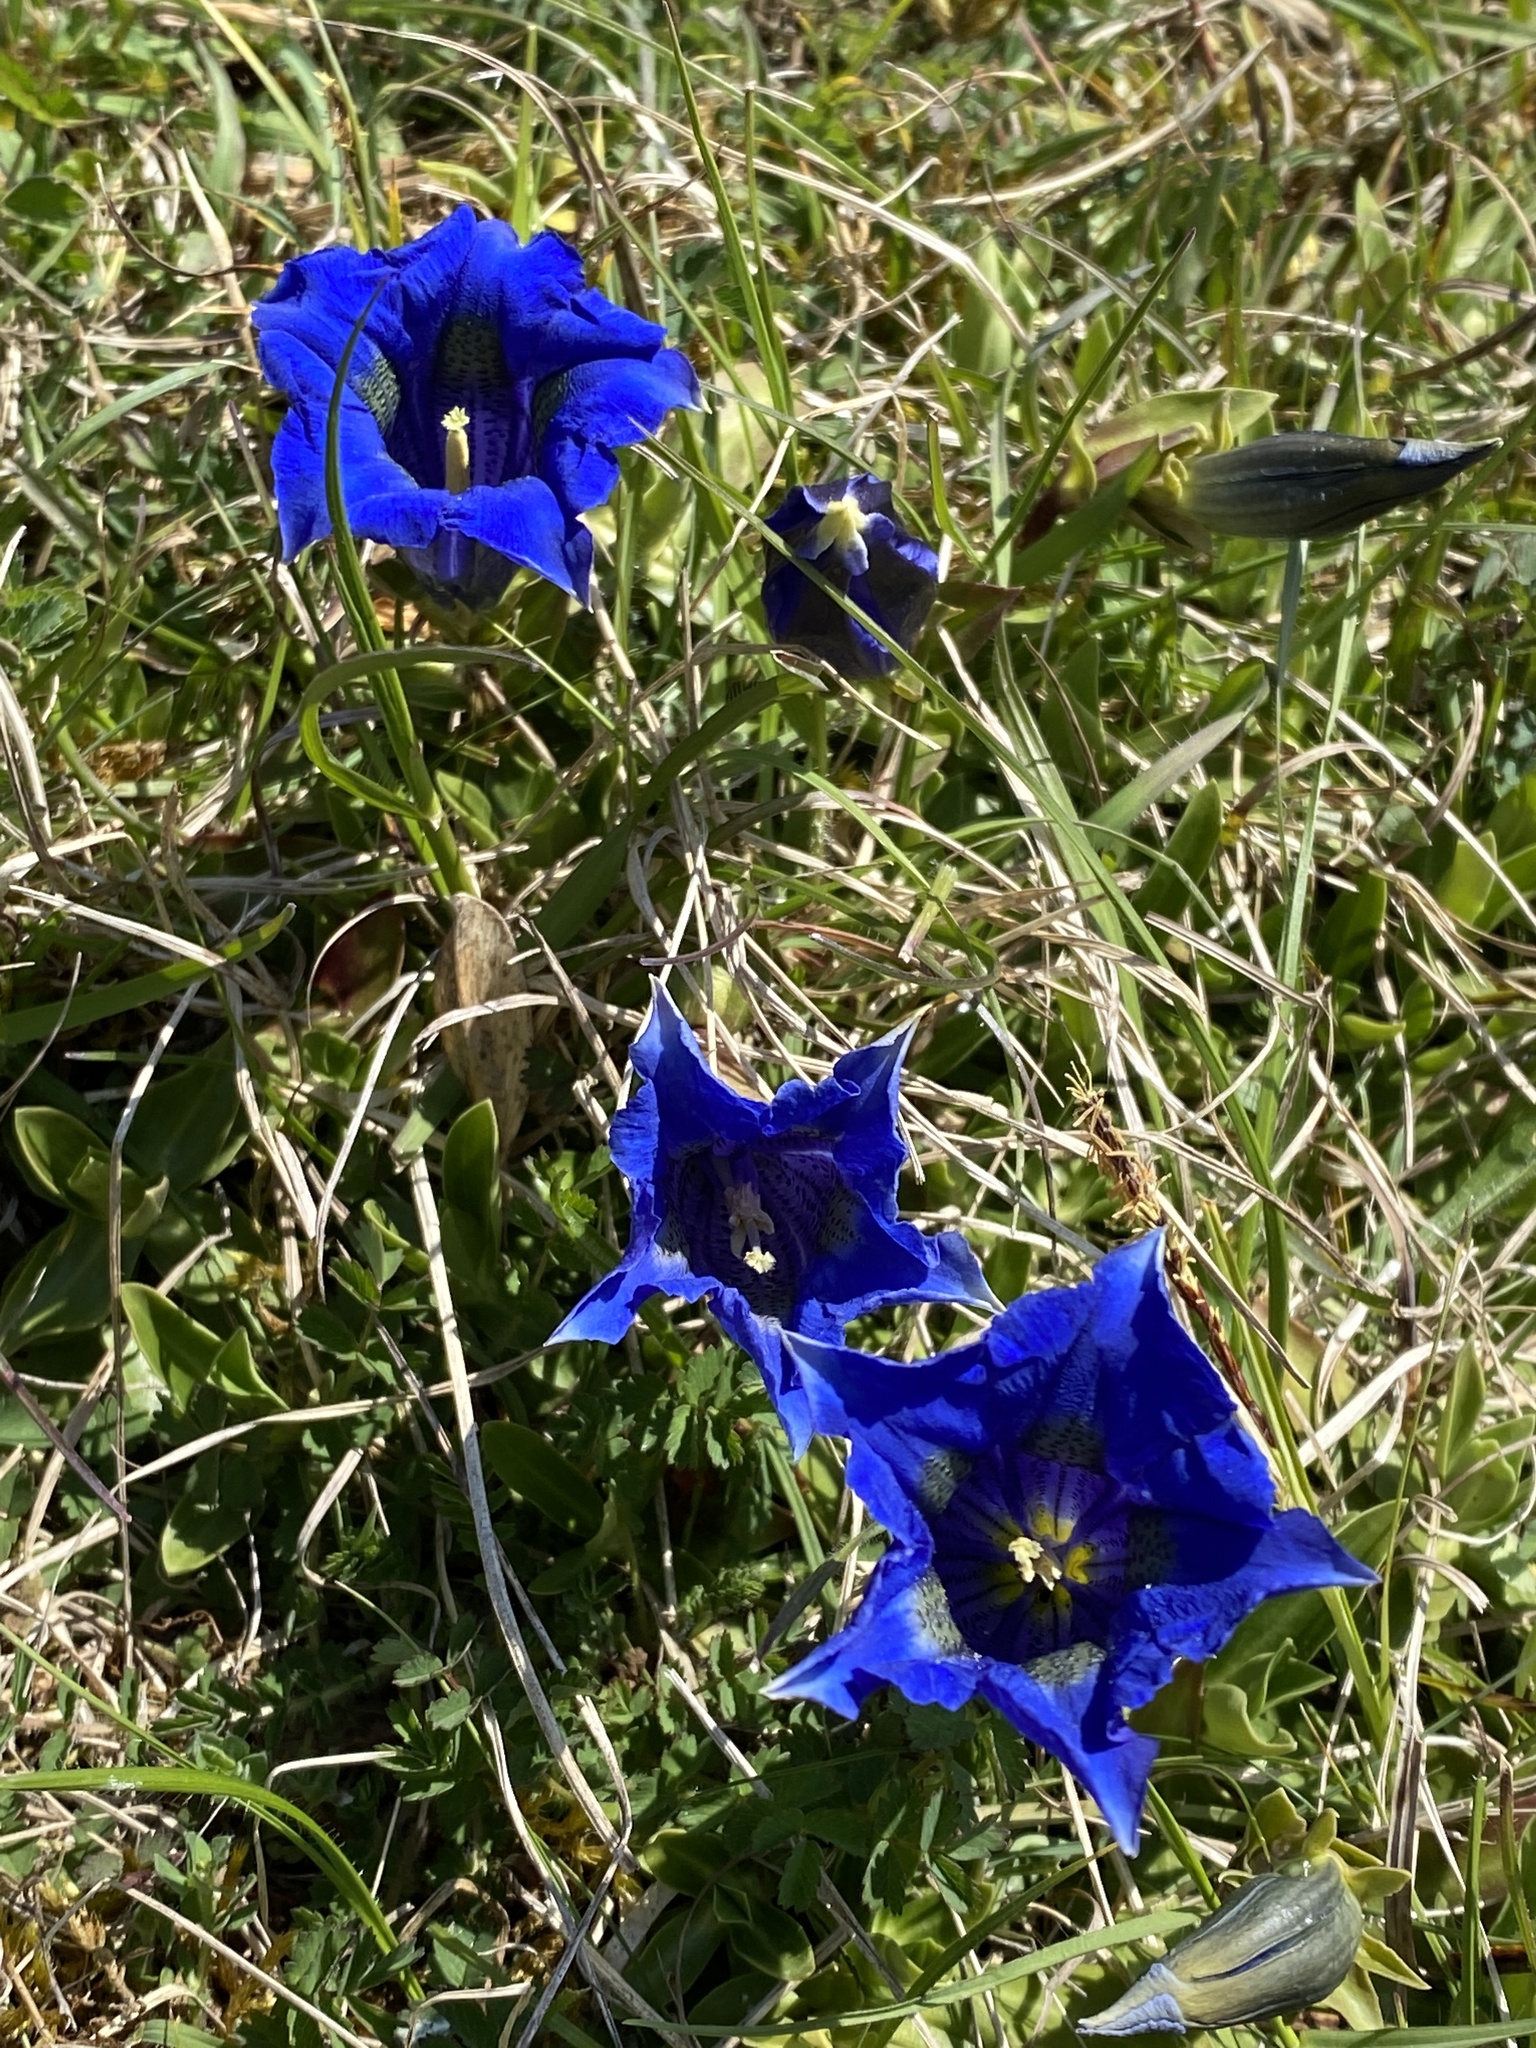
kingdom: Plantae
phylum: Tracheophyta
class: Magnoliopsida
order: Gentianales
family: Gentianaceae
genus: Gentiana
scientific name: Gentiana acaulis
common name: Trumpet gentian
